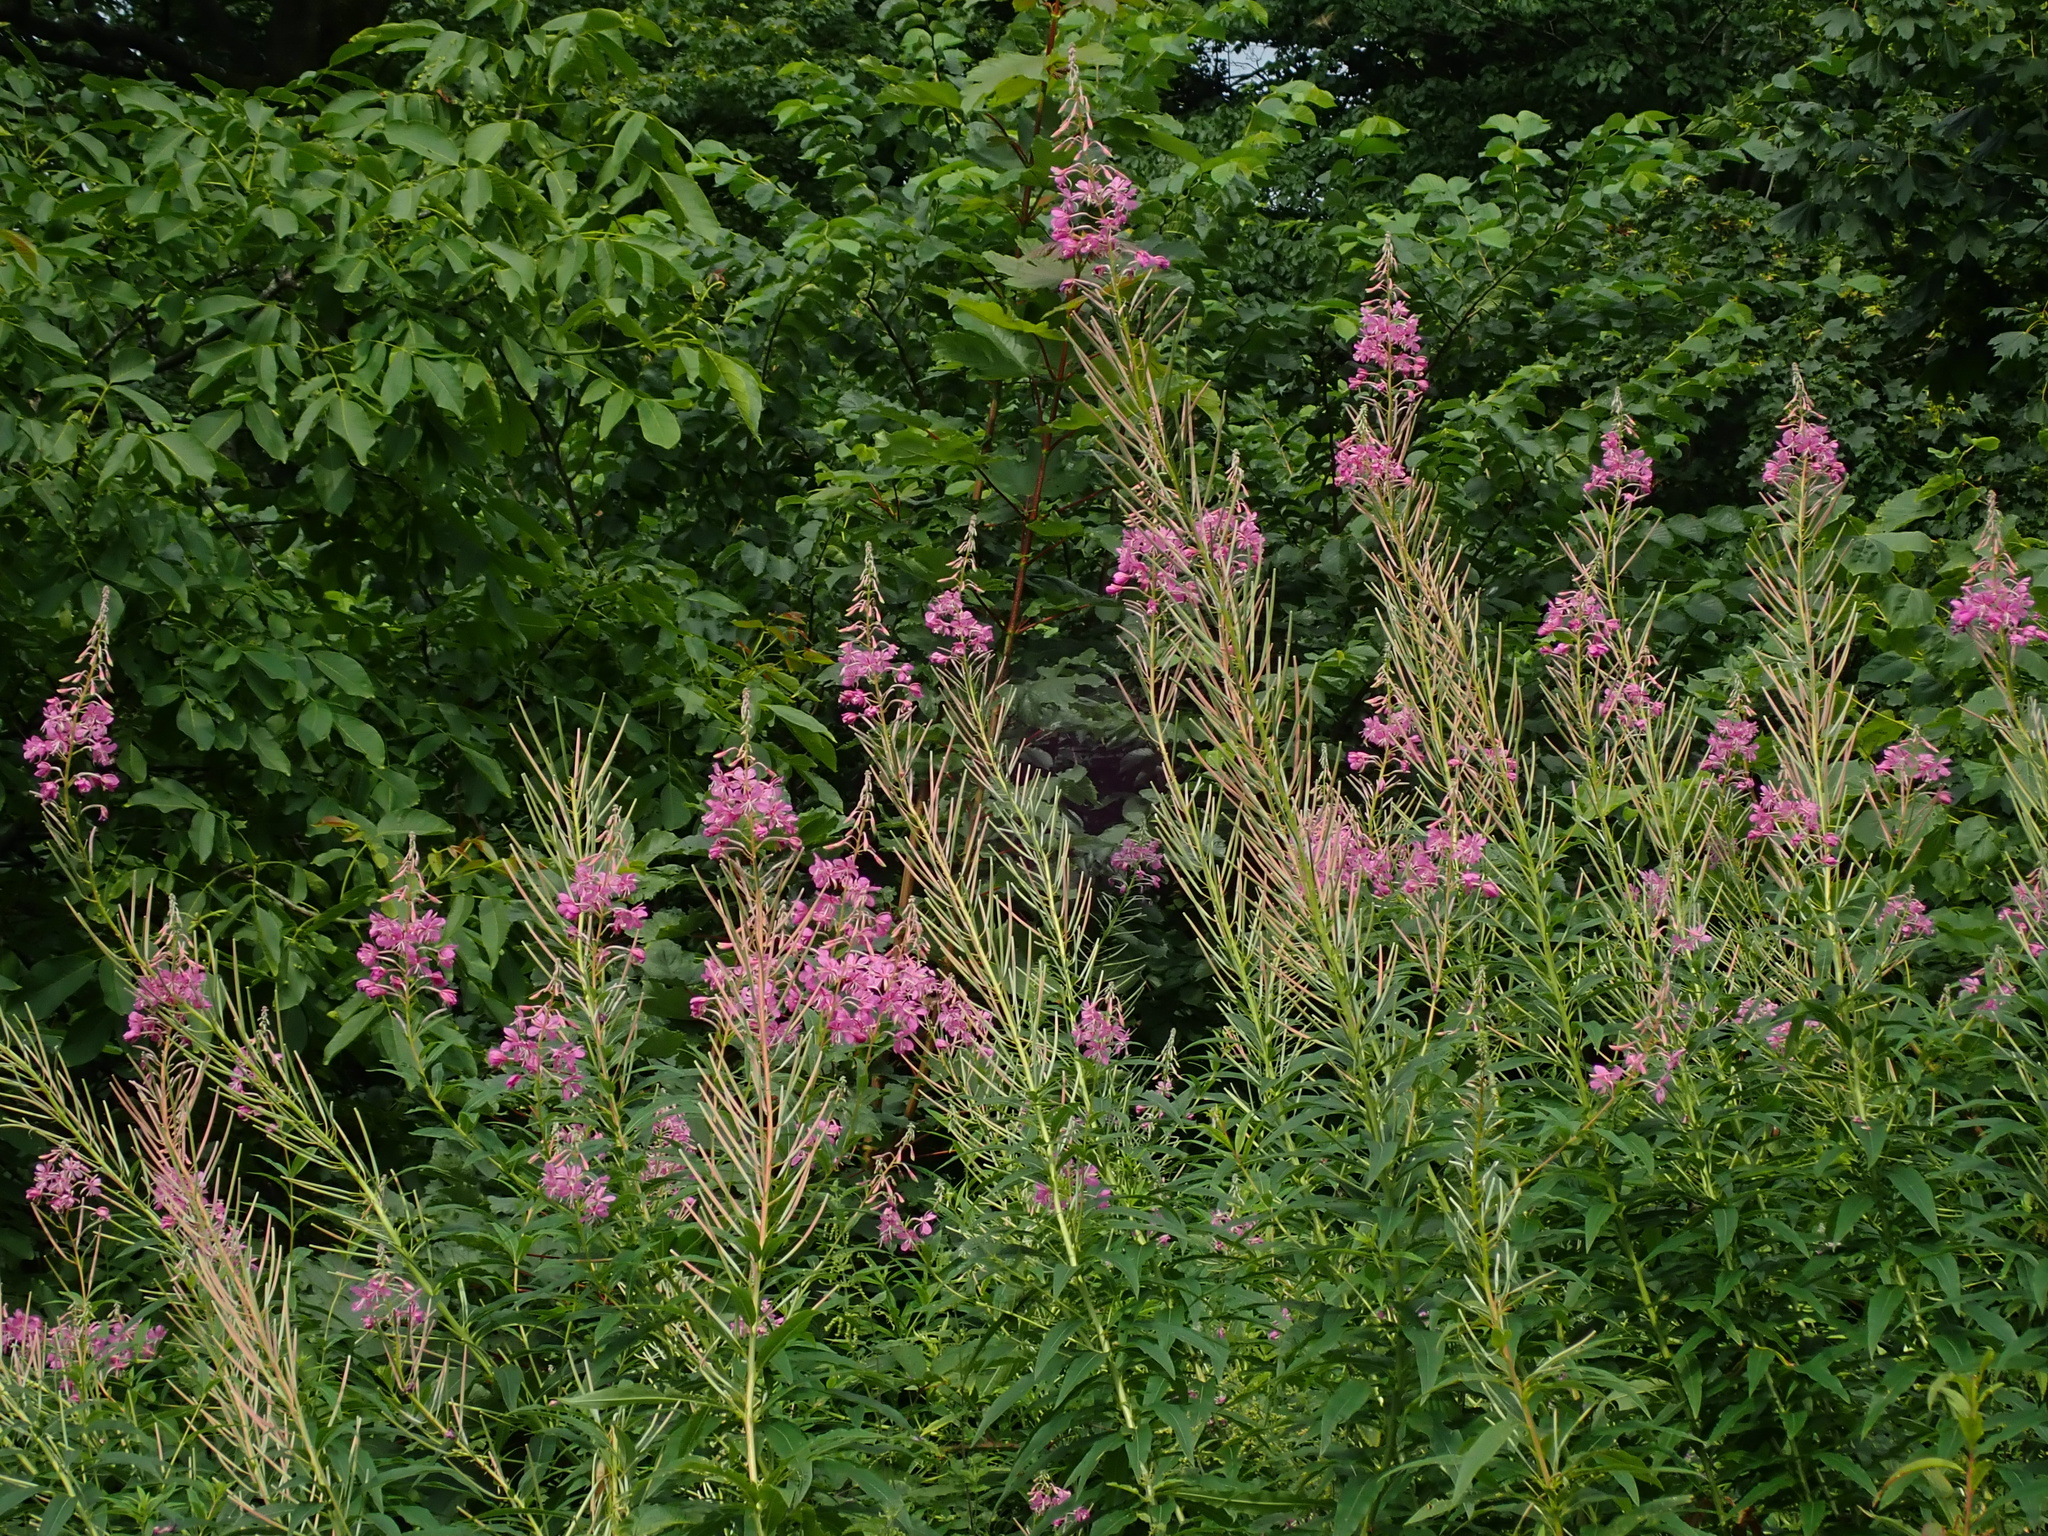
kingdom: Plantae
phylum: Tracheophyta
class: Magnoliopsida
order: Myrtales
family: Onagraceae
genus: Chamaenerion
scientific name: Chamaenerion angustifolium
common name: Fireweed
